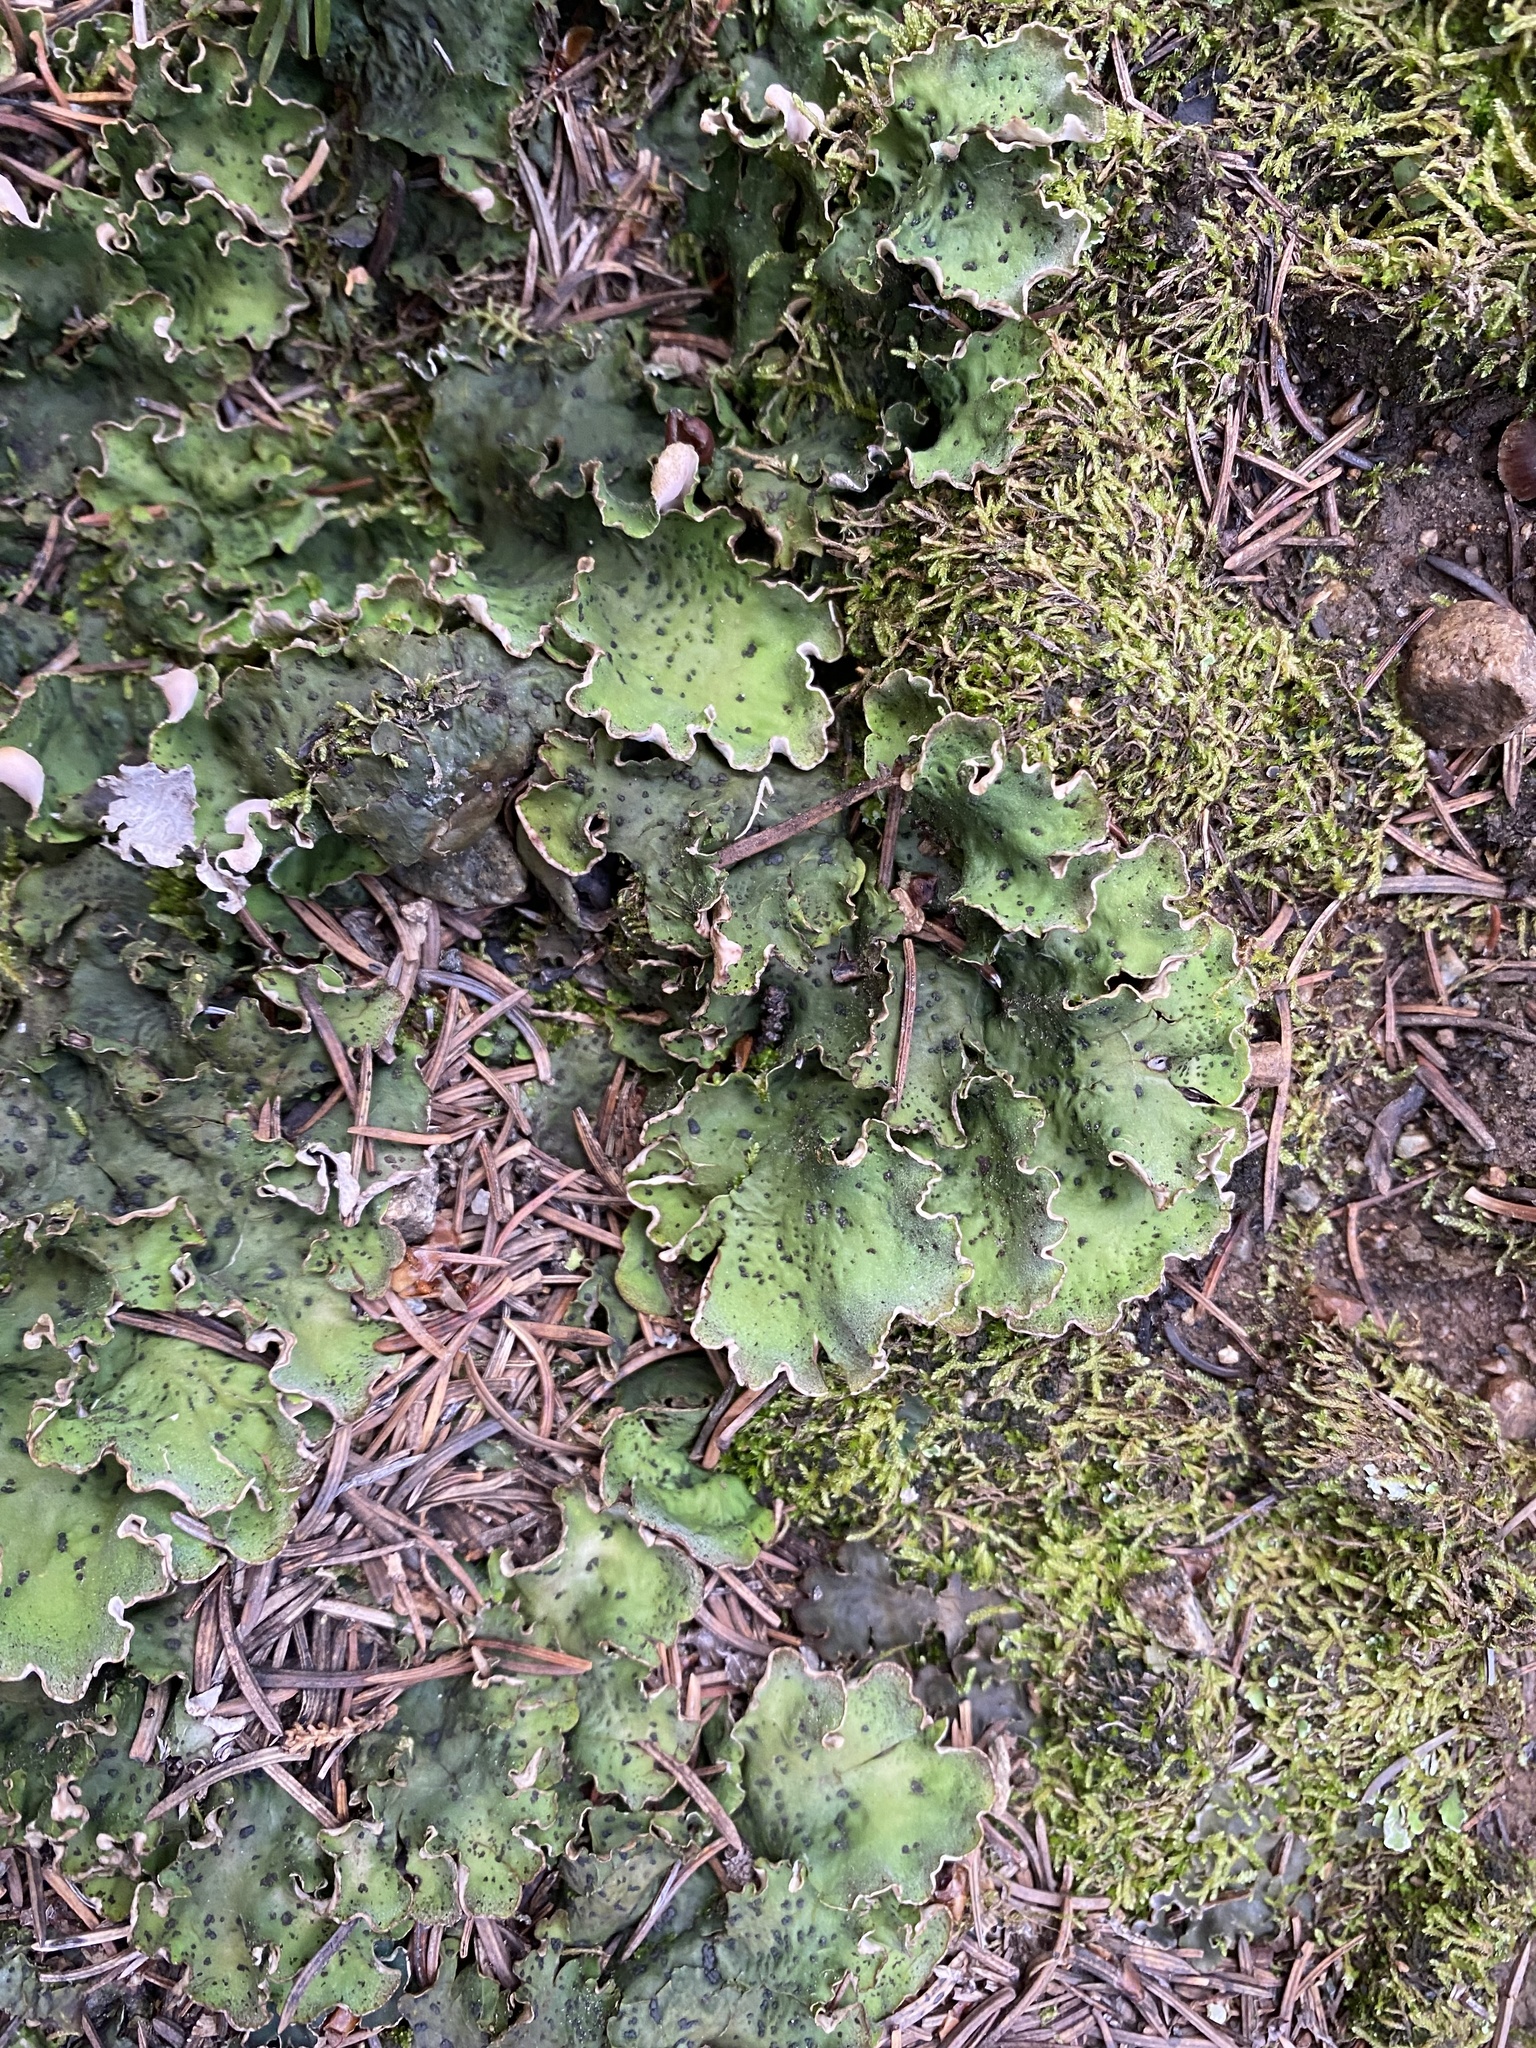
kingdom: Fungi
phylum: Ascomycota
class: Lecanoromycetes
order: Peltigerales
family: Peltigeraceae
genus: Peltigera
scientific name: Peltigera
